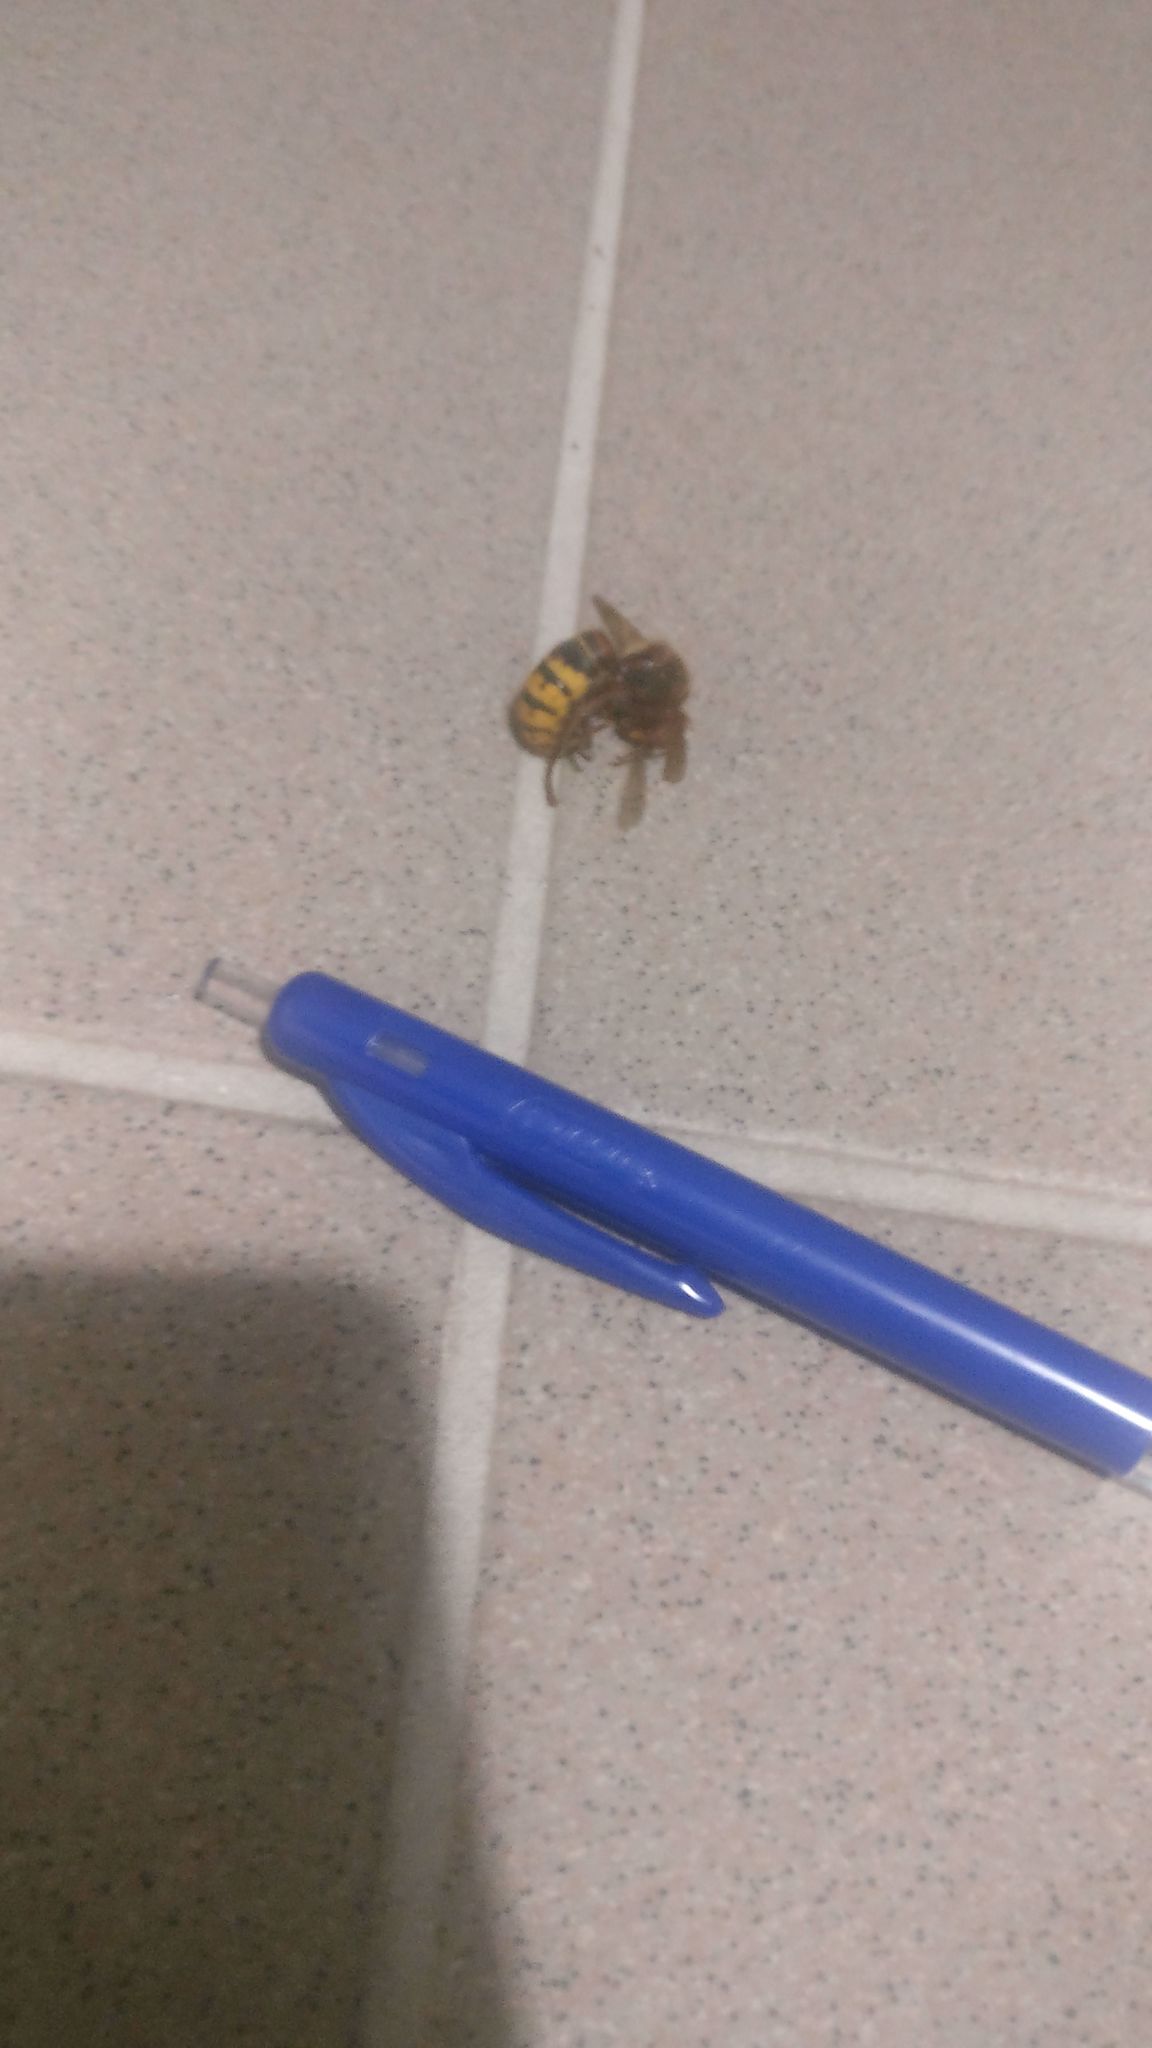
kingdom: Animalia
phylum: Arthropoda
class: Insecta
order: Hymenoptera
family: Vespidae
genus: Vespa
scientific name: Vespa crabro
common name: Hornet
